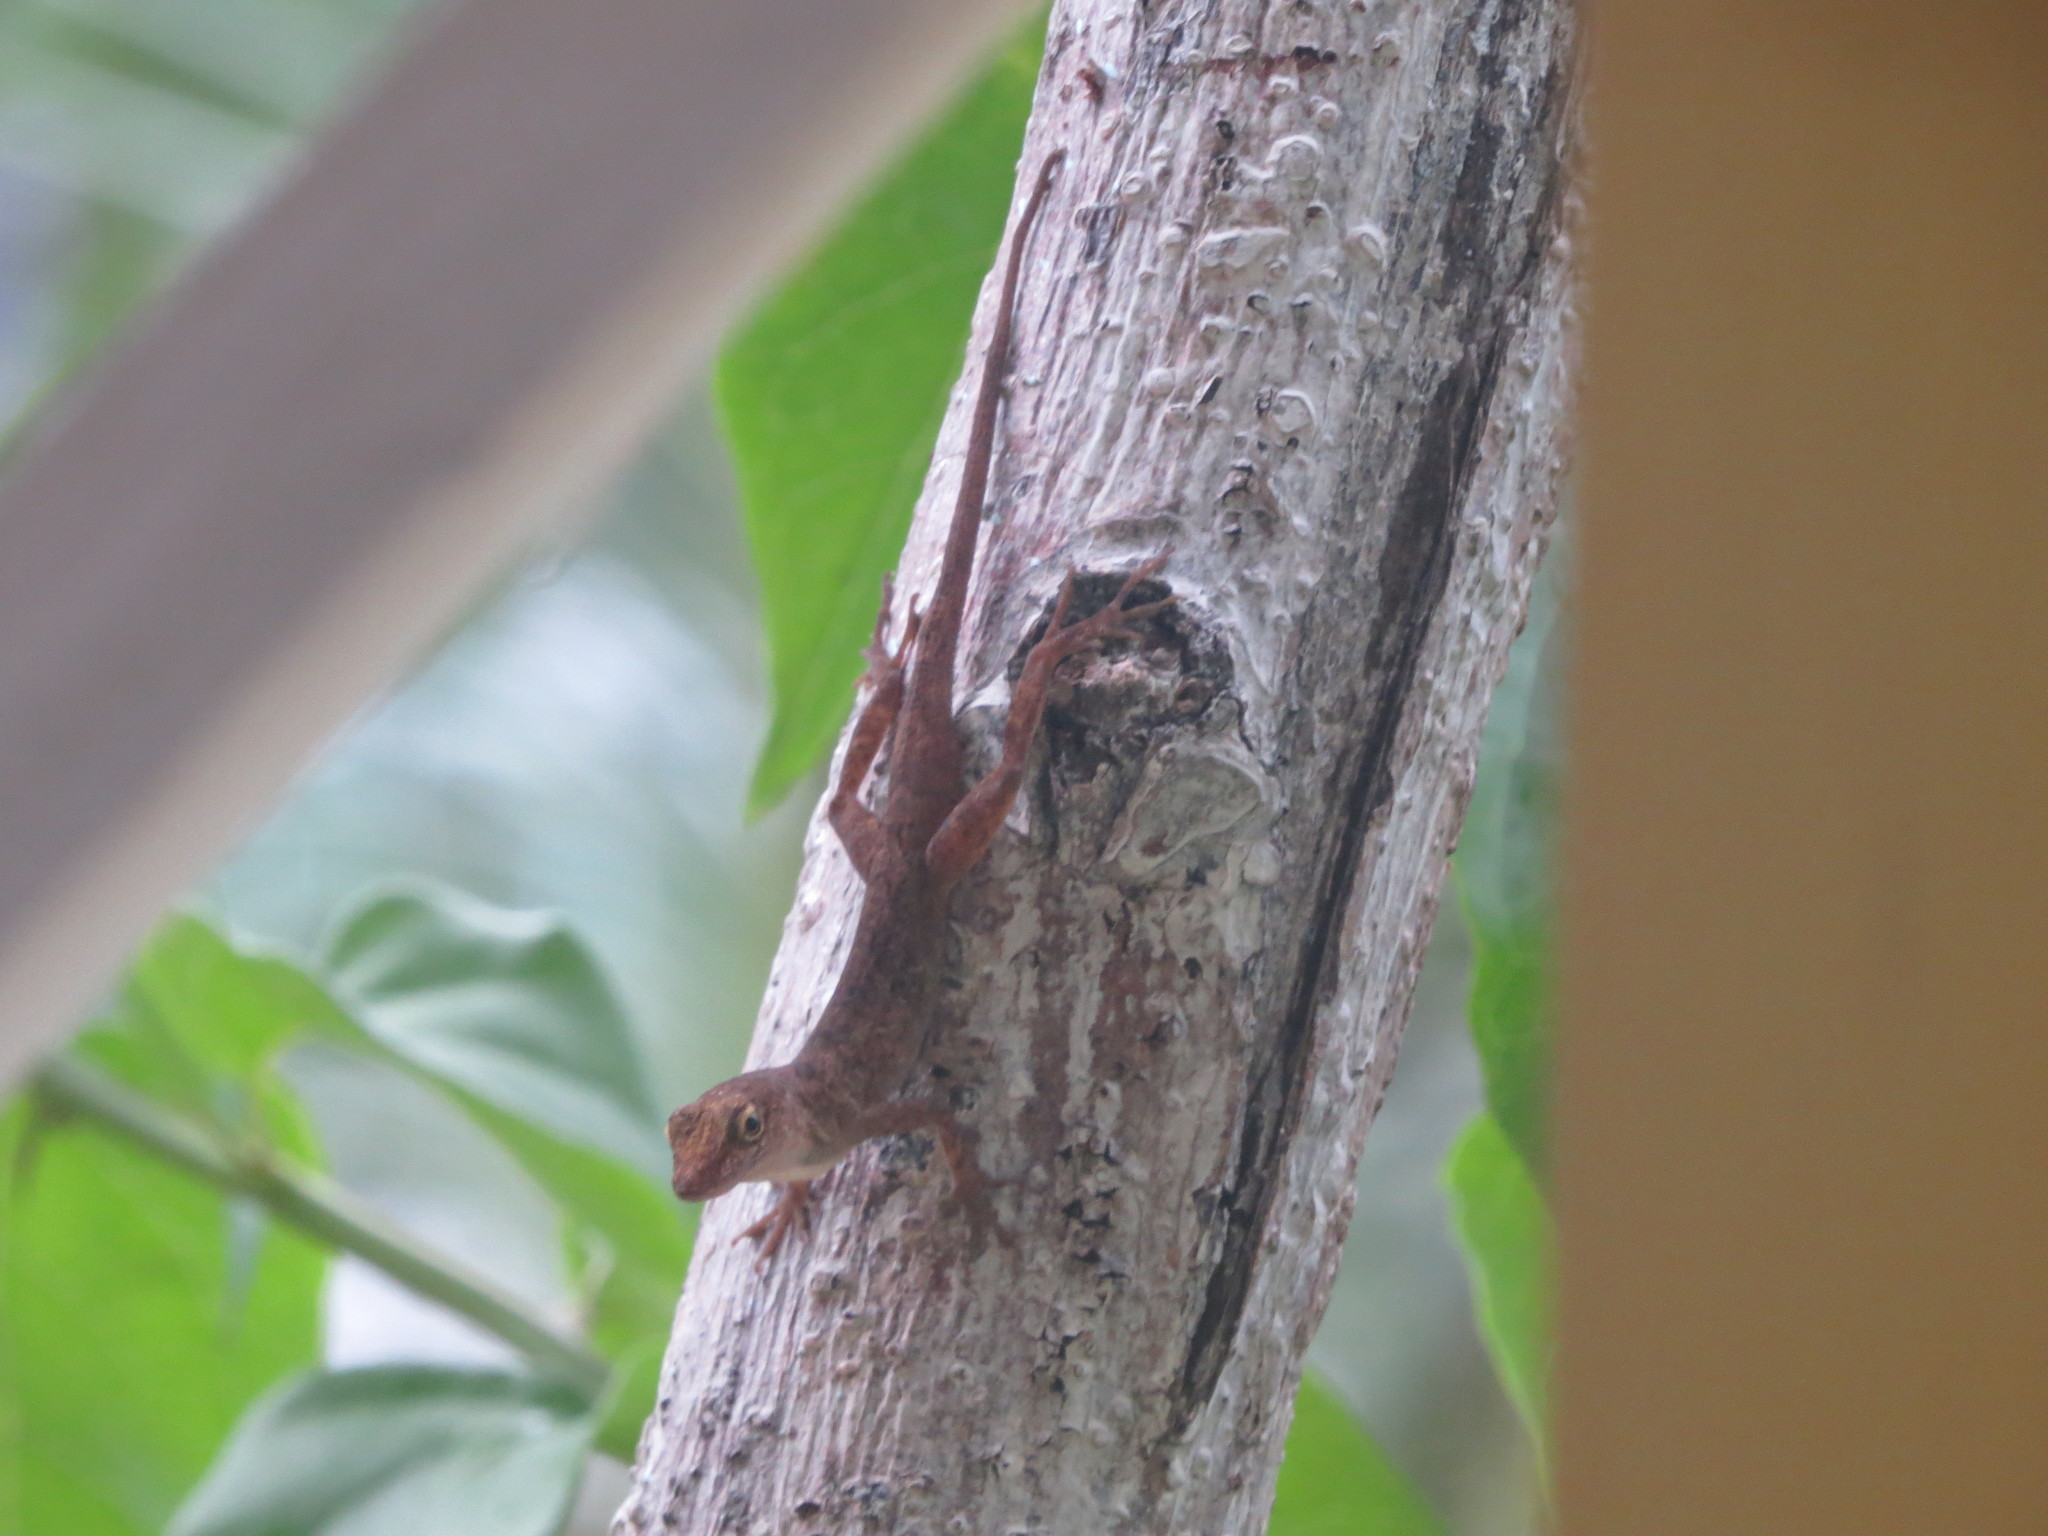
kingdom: Animalia
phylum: Chordata
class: Squamata
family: Dactyloidae
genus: Anolis
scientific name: Anolis pinchoti
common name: Crab cay anole
